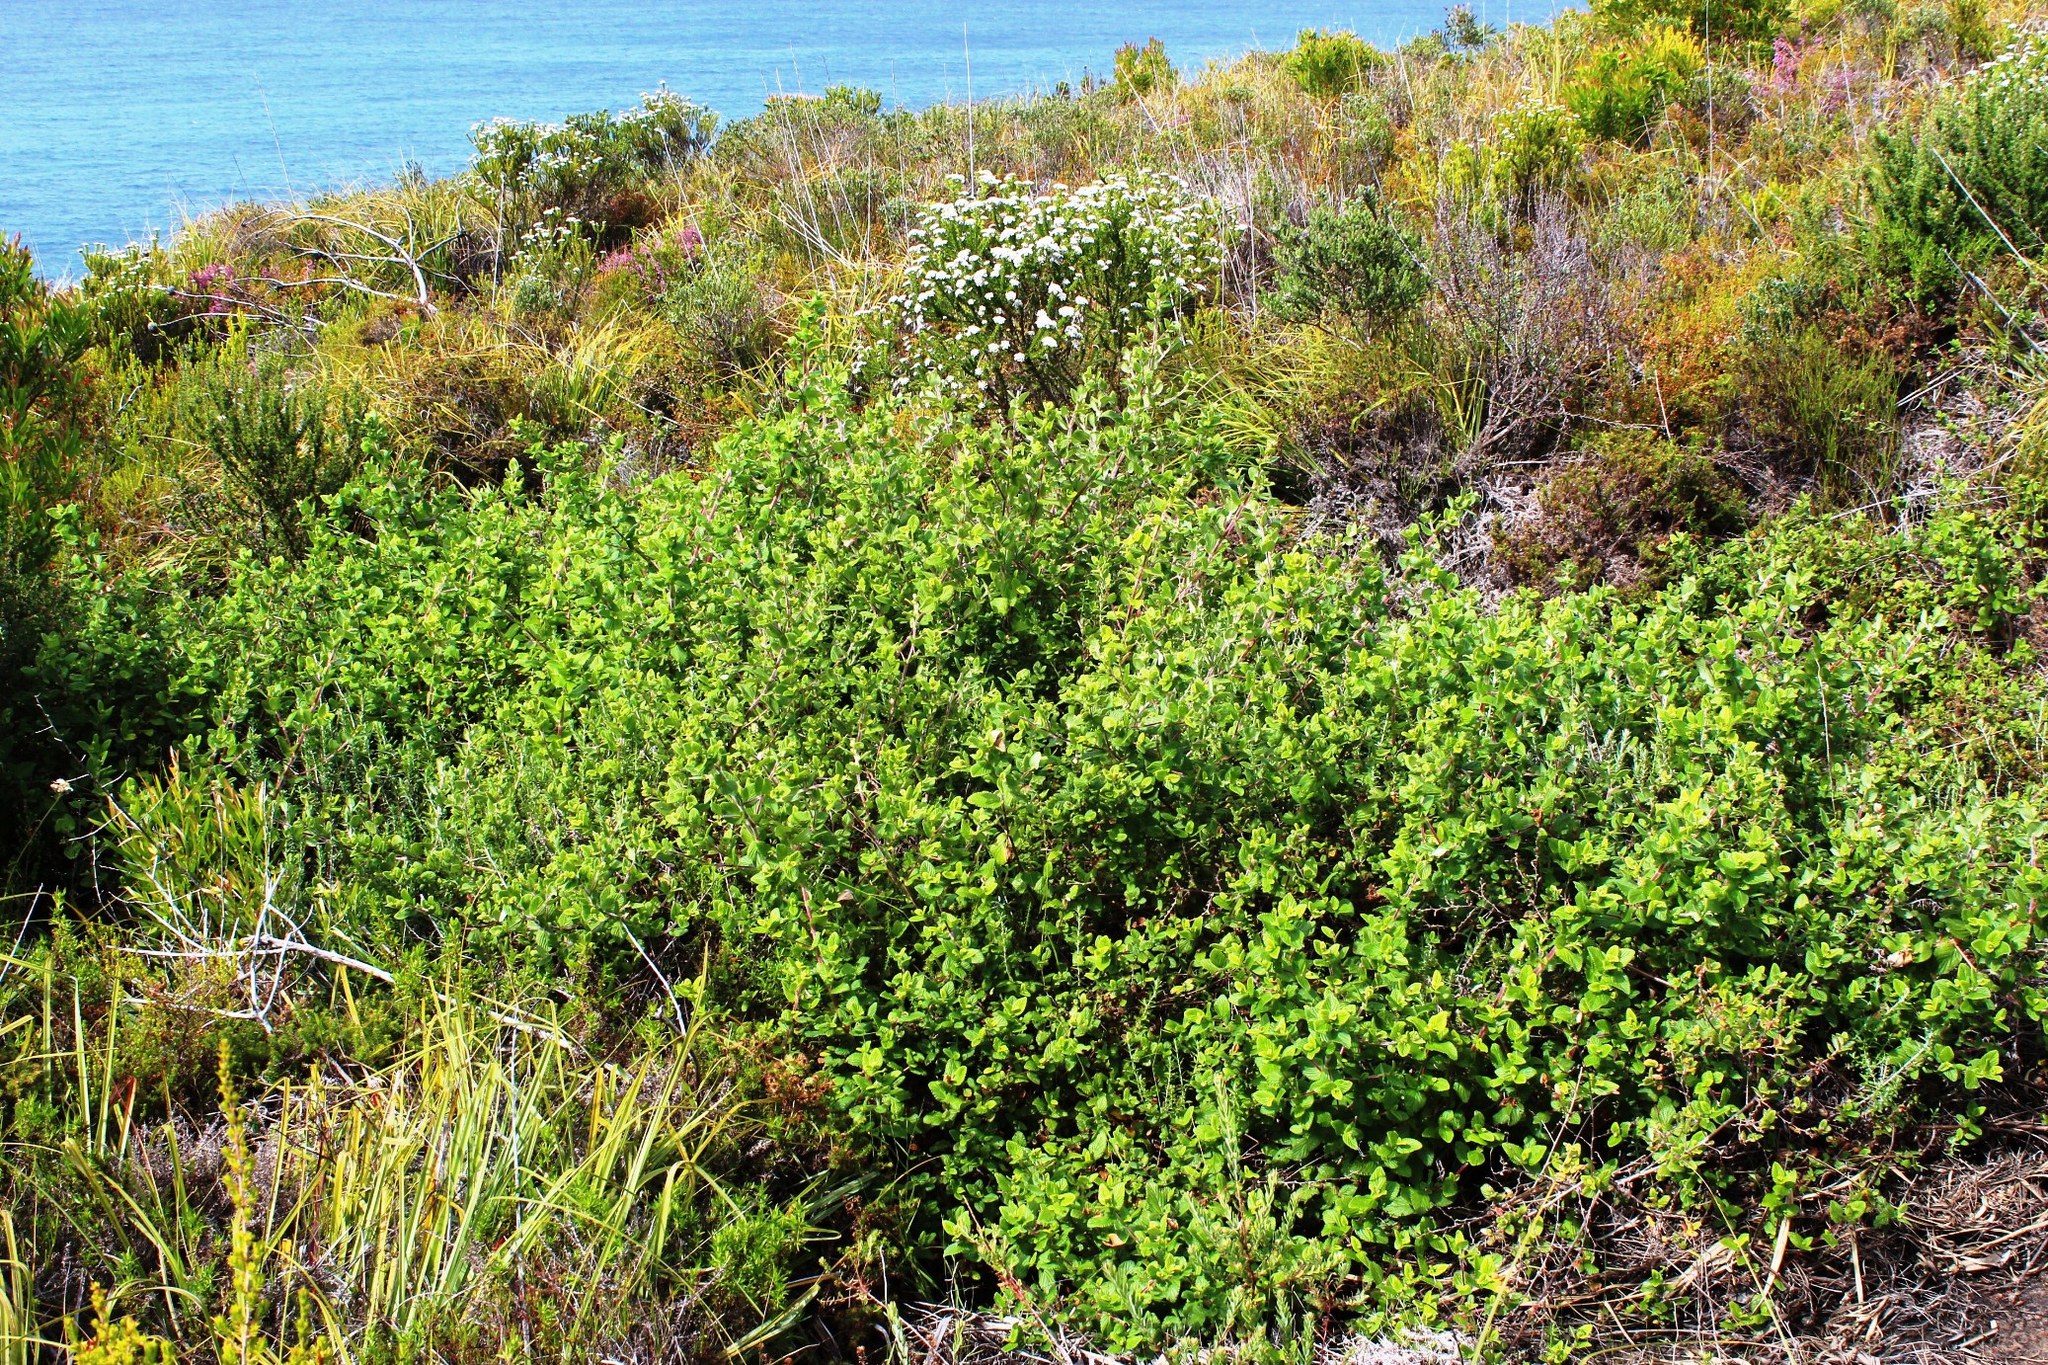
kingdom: Plantae
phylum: Tracheophyta
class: Magnoliopsida
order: Rosales
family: Rosaceae
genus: Cliffortia
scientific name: Cliffortia odorata
